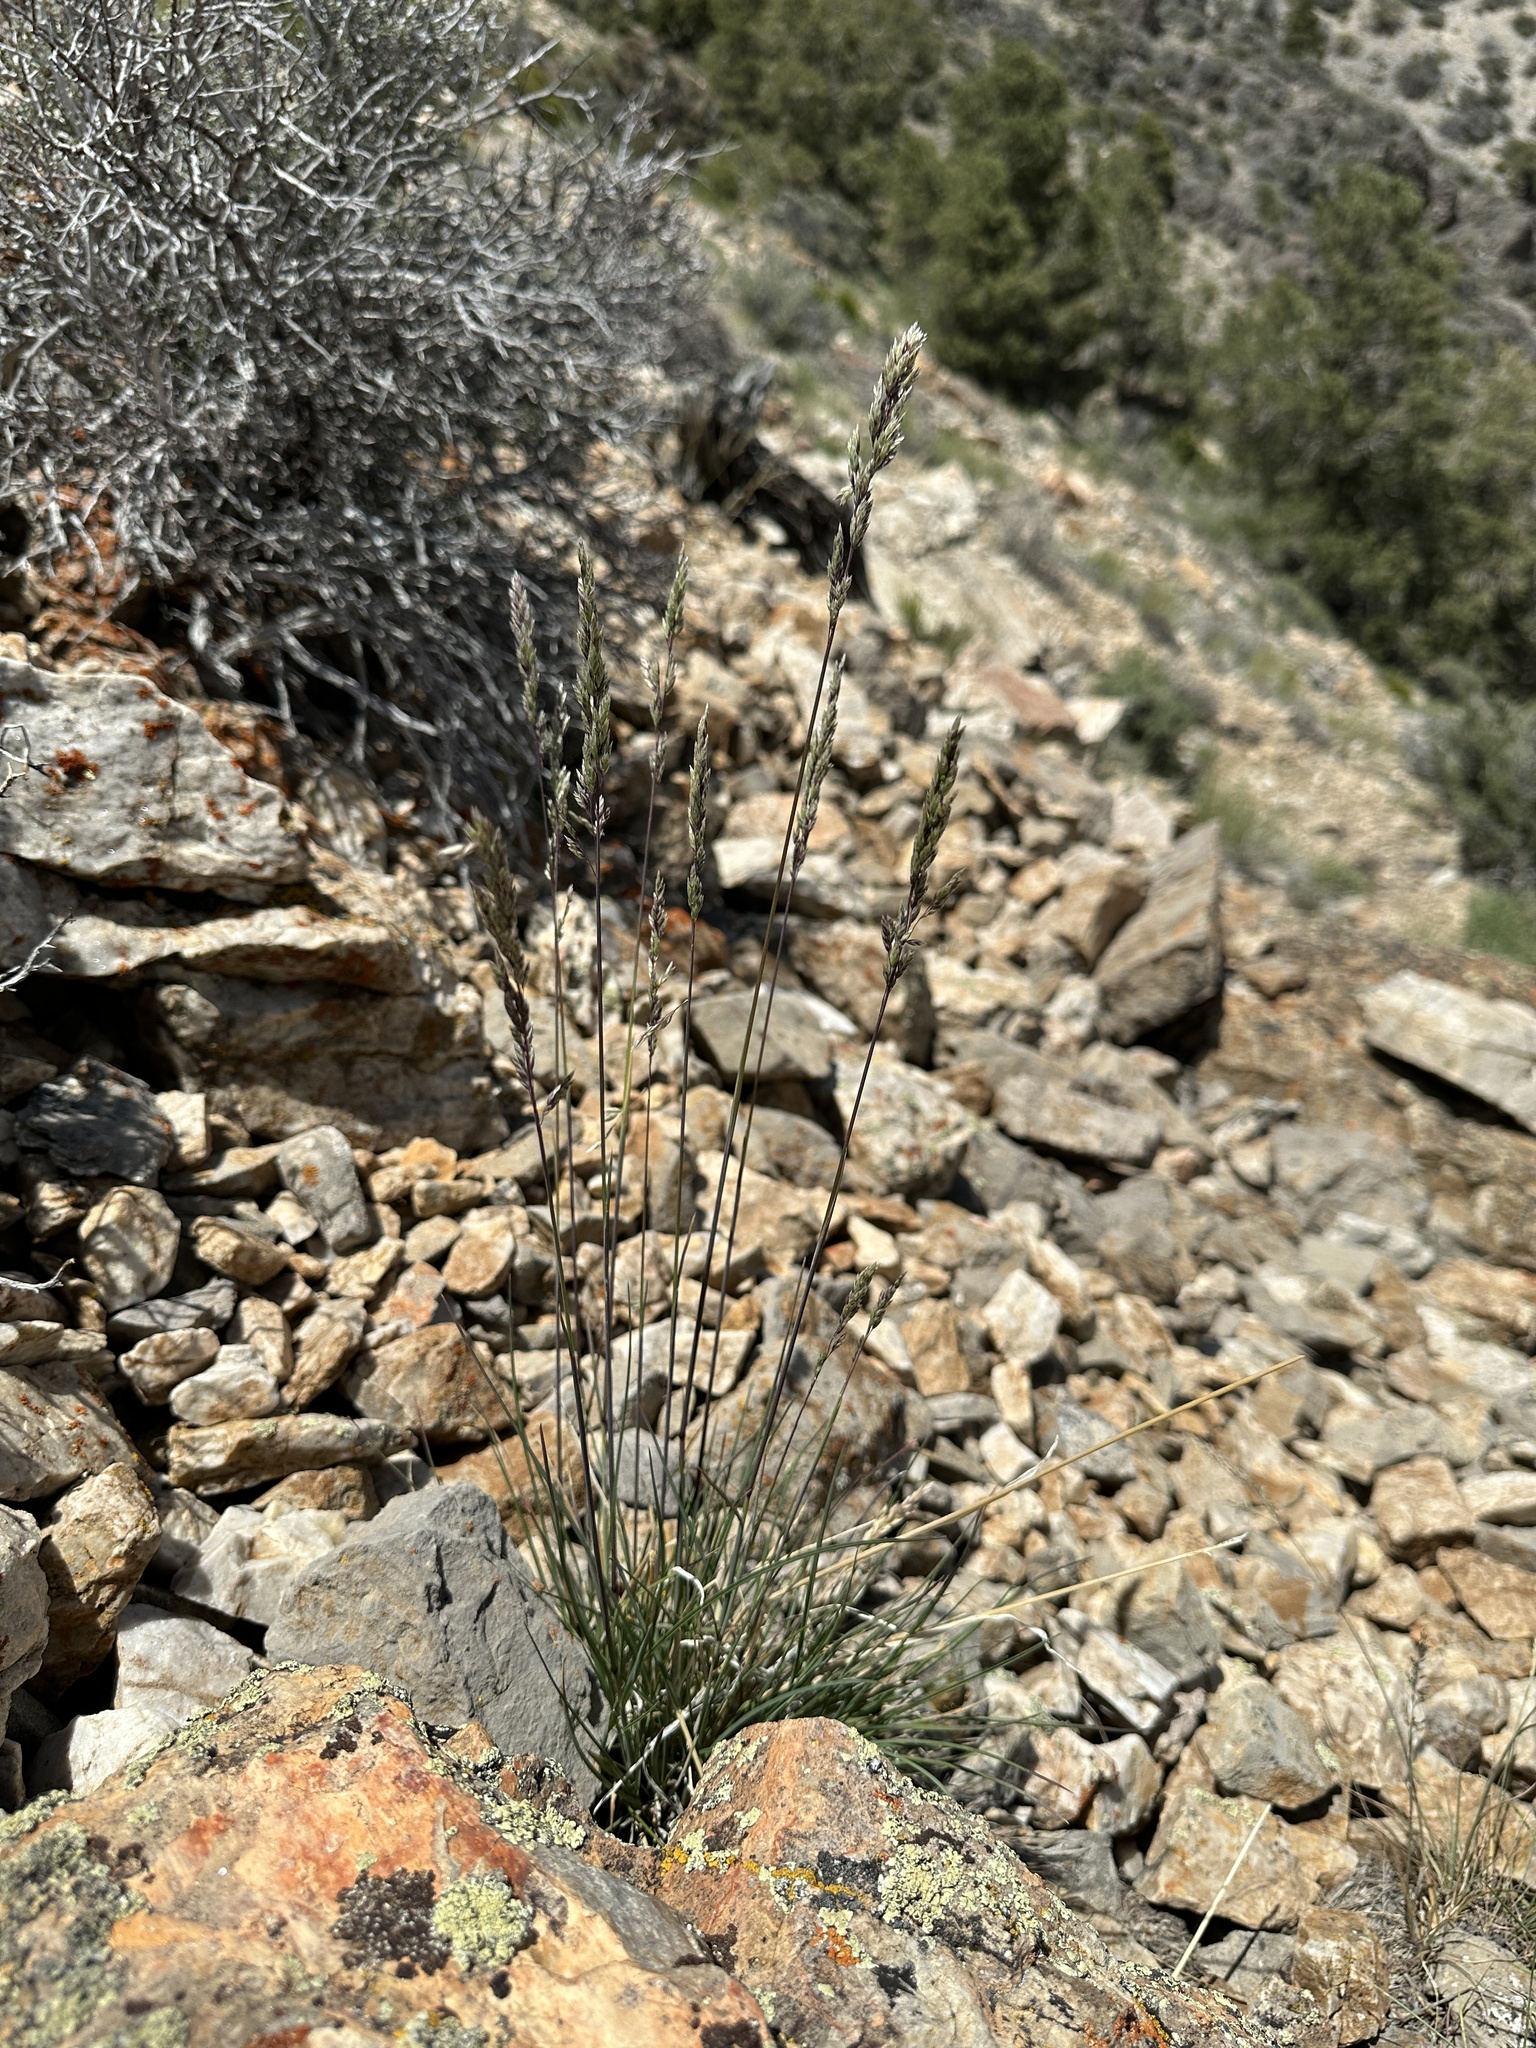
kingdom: Plantae
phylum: Tracheophyta
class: Liliopsida
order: Poales
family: Poaceae
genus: Poa
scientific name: Poa fendleriana
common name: Mutton bluegrass
